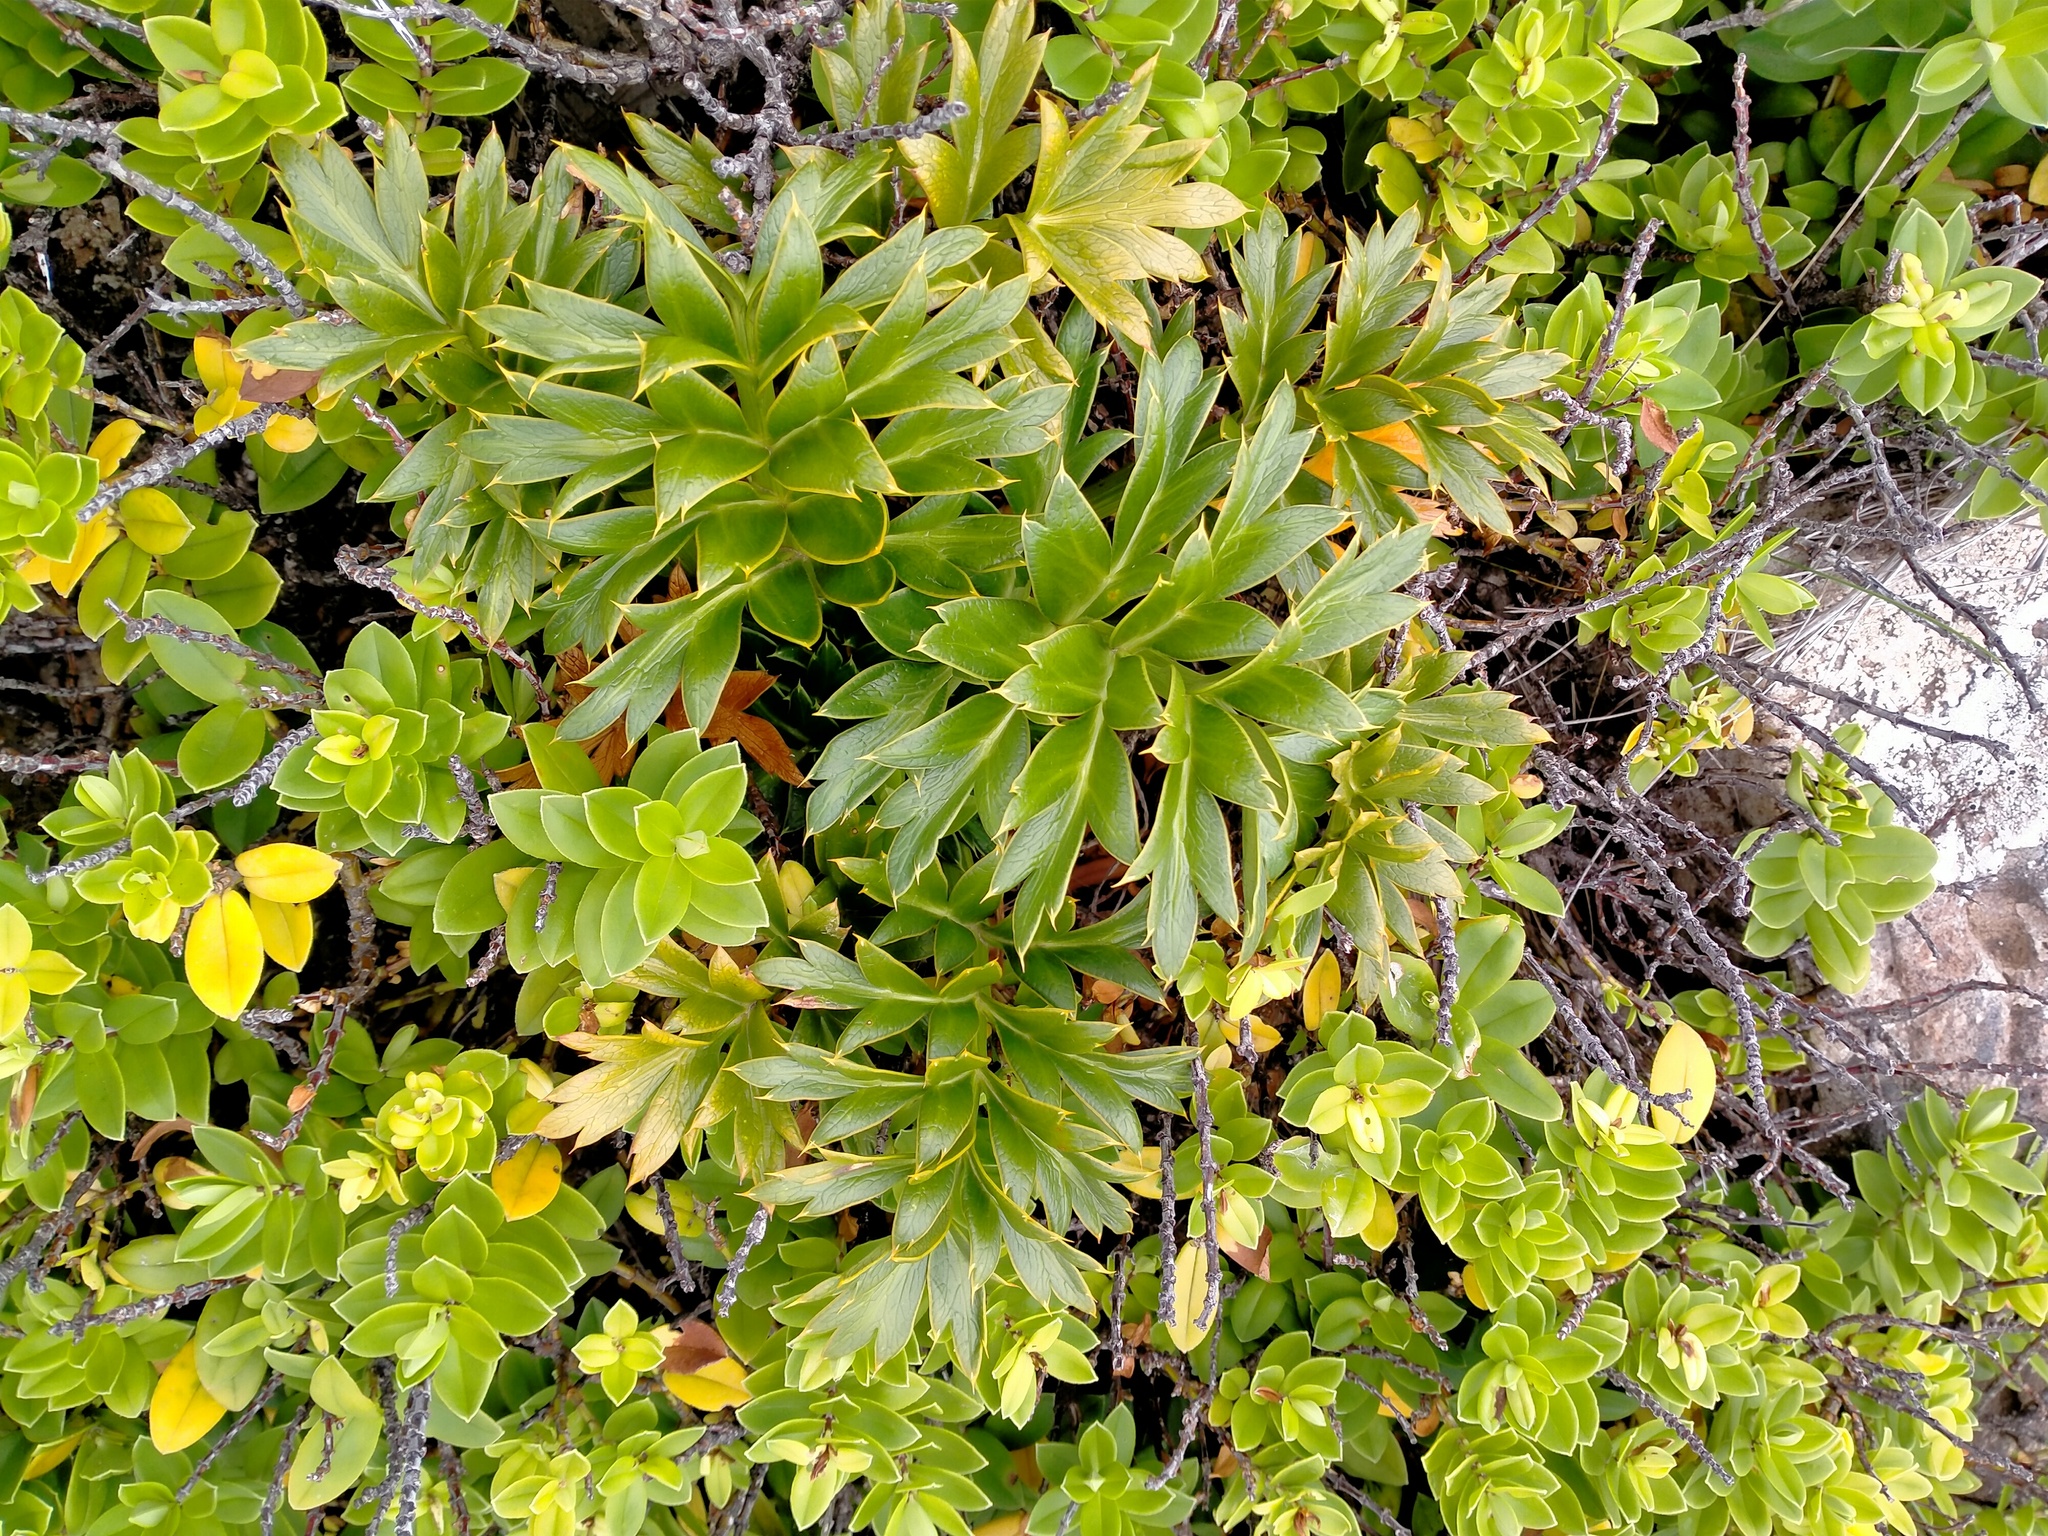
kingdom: Plantae
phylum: Tracheophyta
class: Magnoliopsida
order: Apiales
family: Apiaceae
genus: Anisotome
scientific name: Anisotome latifolia
